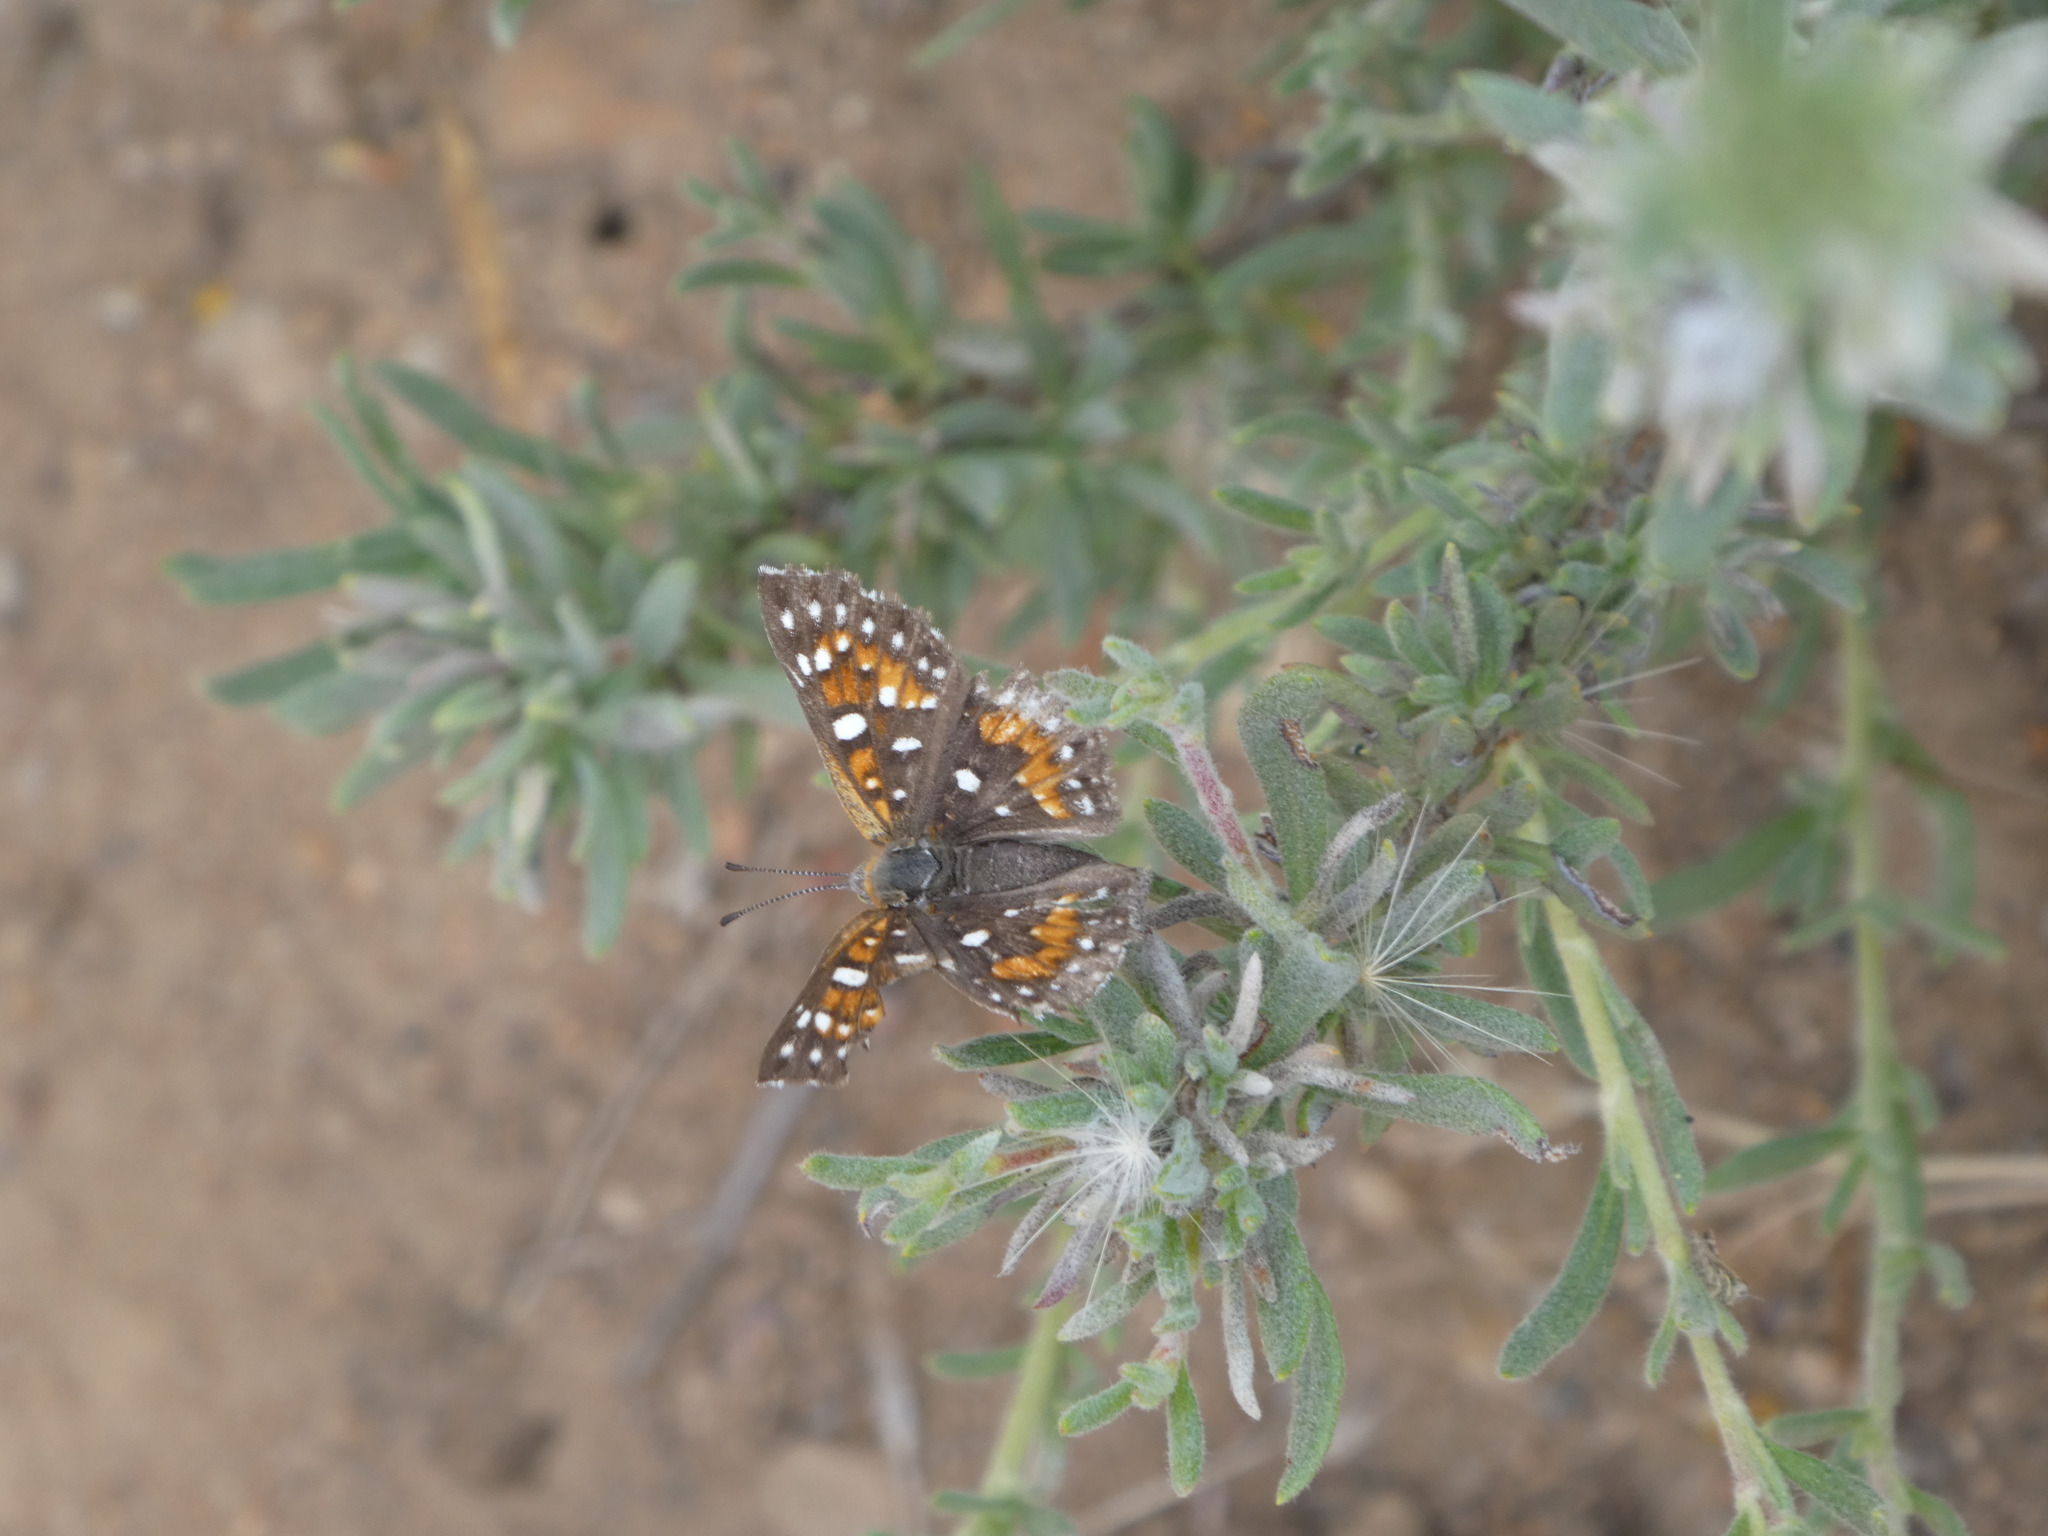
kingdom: Animalia
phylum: Arthropoda
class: Insecta
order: Lepidoptera
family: Riodinidae
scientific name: Riodinidae
